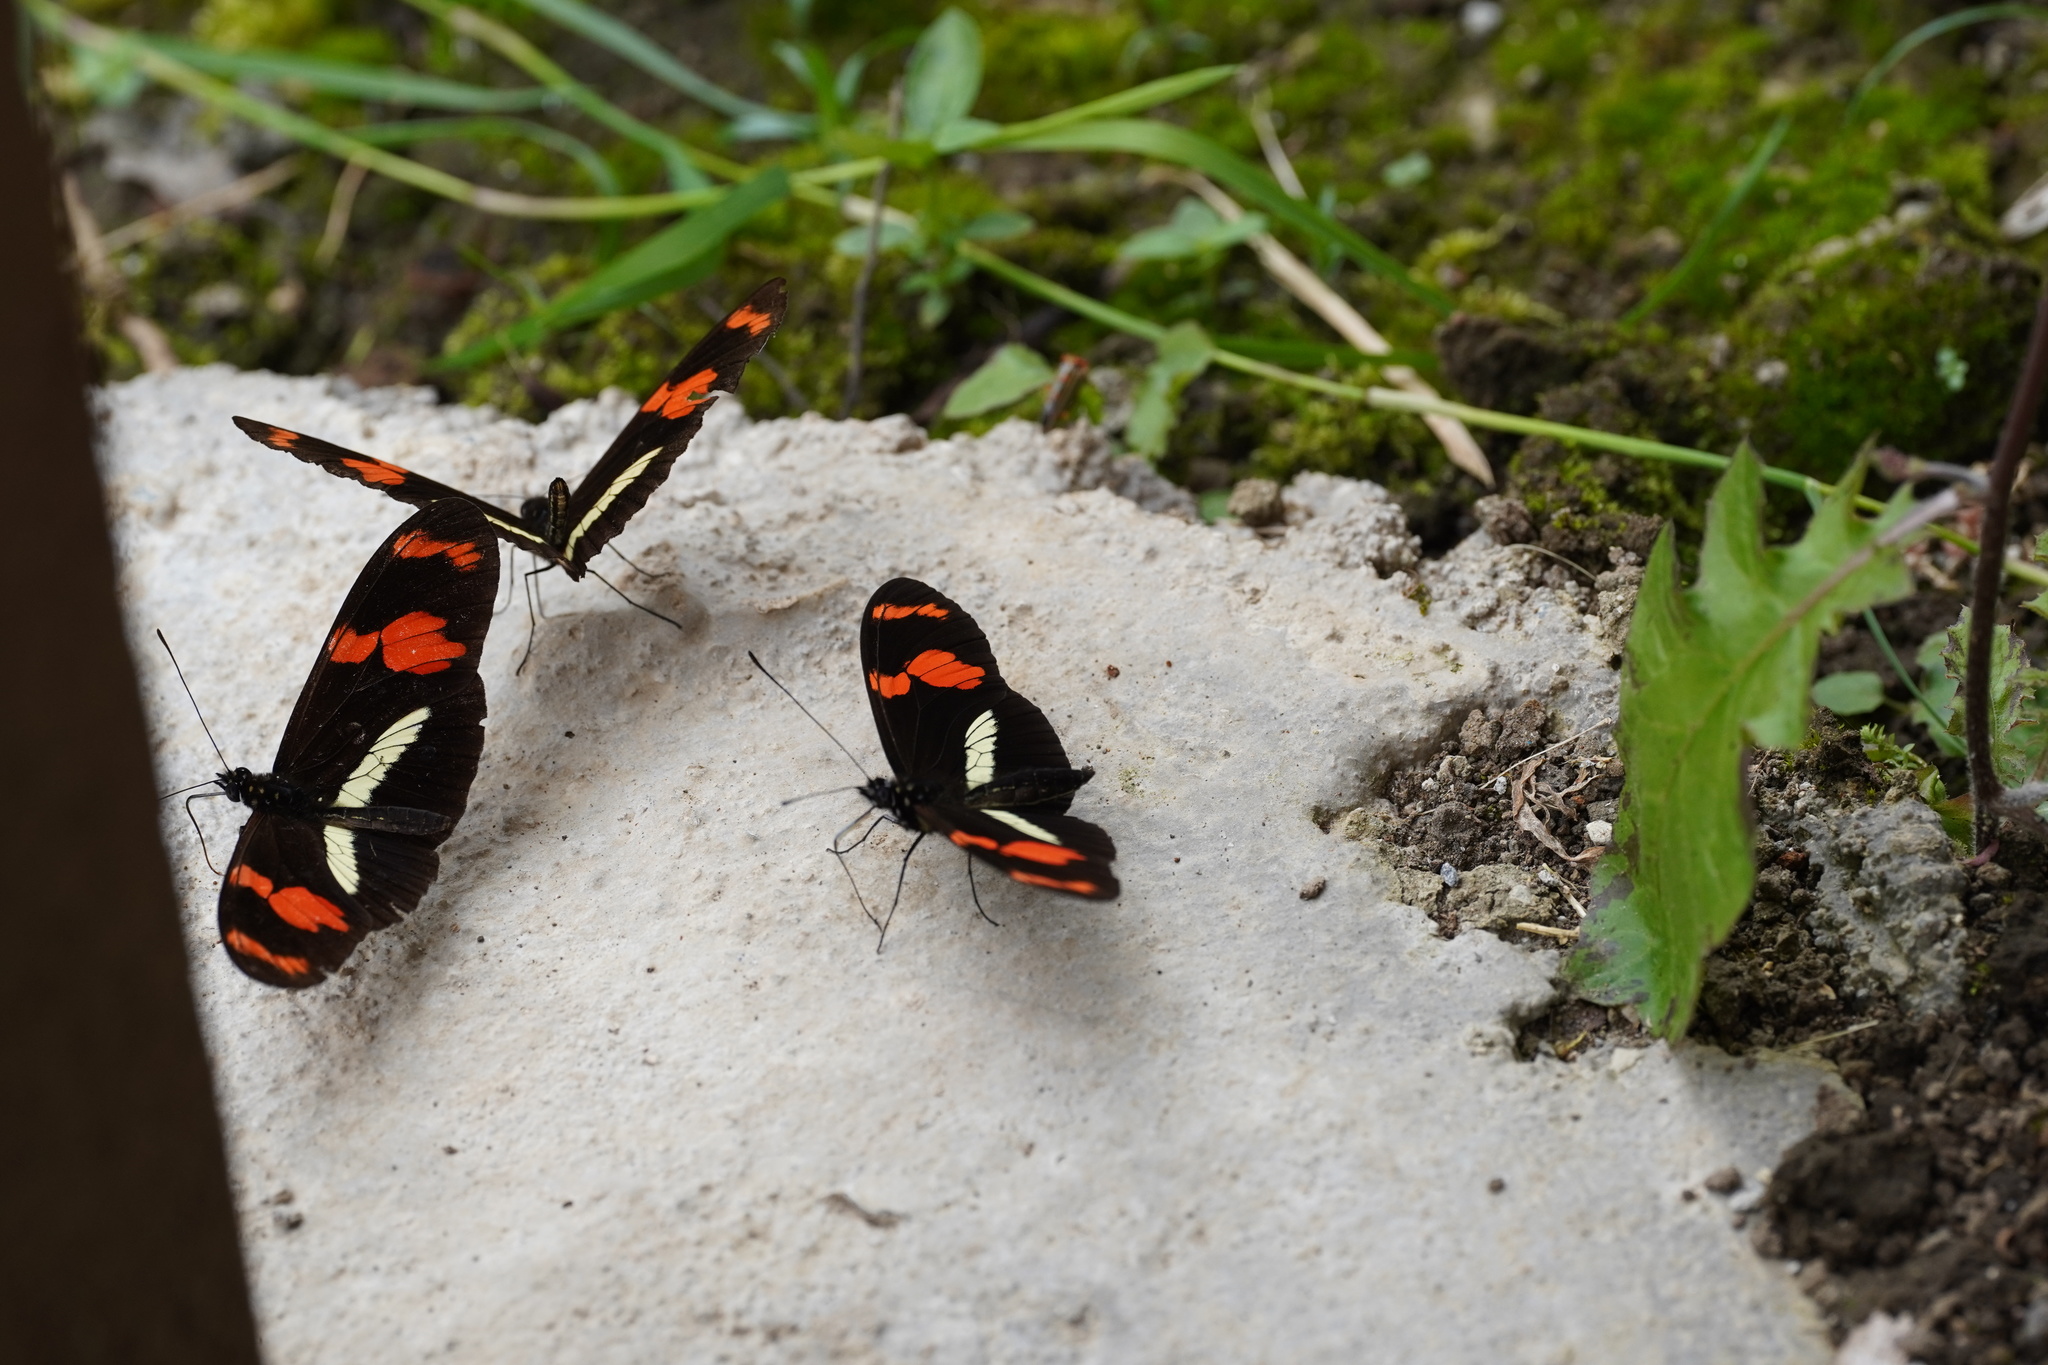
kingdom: Animalia
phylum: Arthropoda
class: Insecta
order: Lepidoptera
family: Nymphalidae
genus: Heliconius
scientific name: Heliconius telesiphe
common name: Telesiphe longwing
